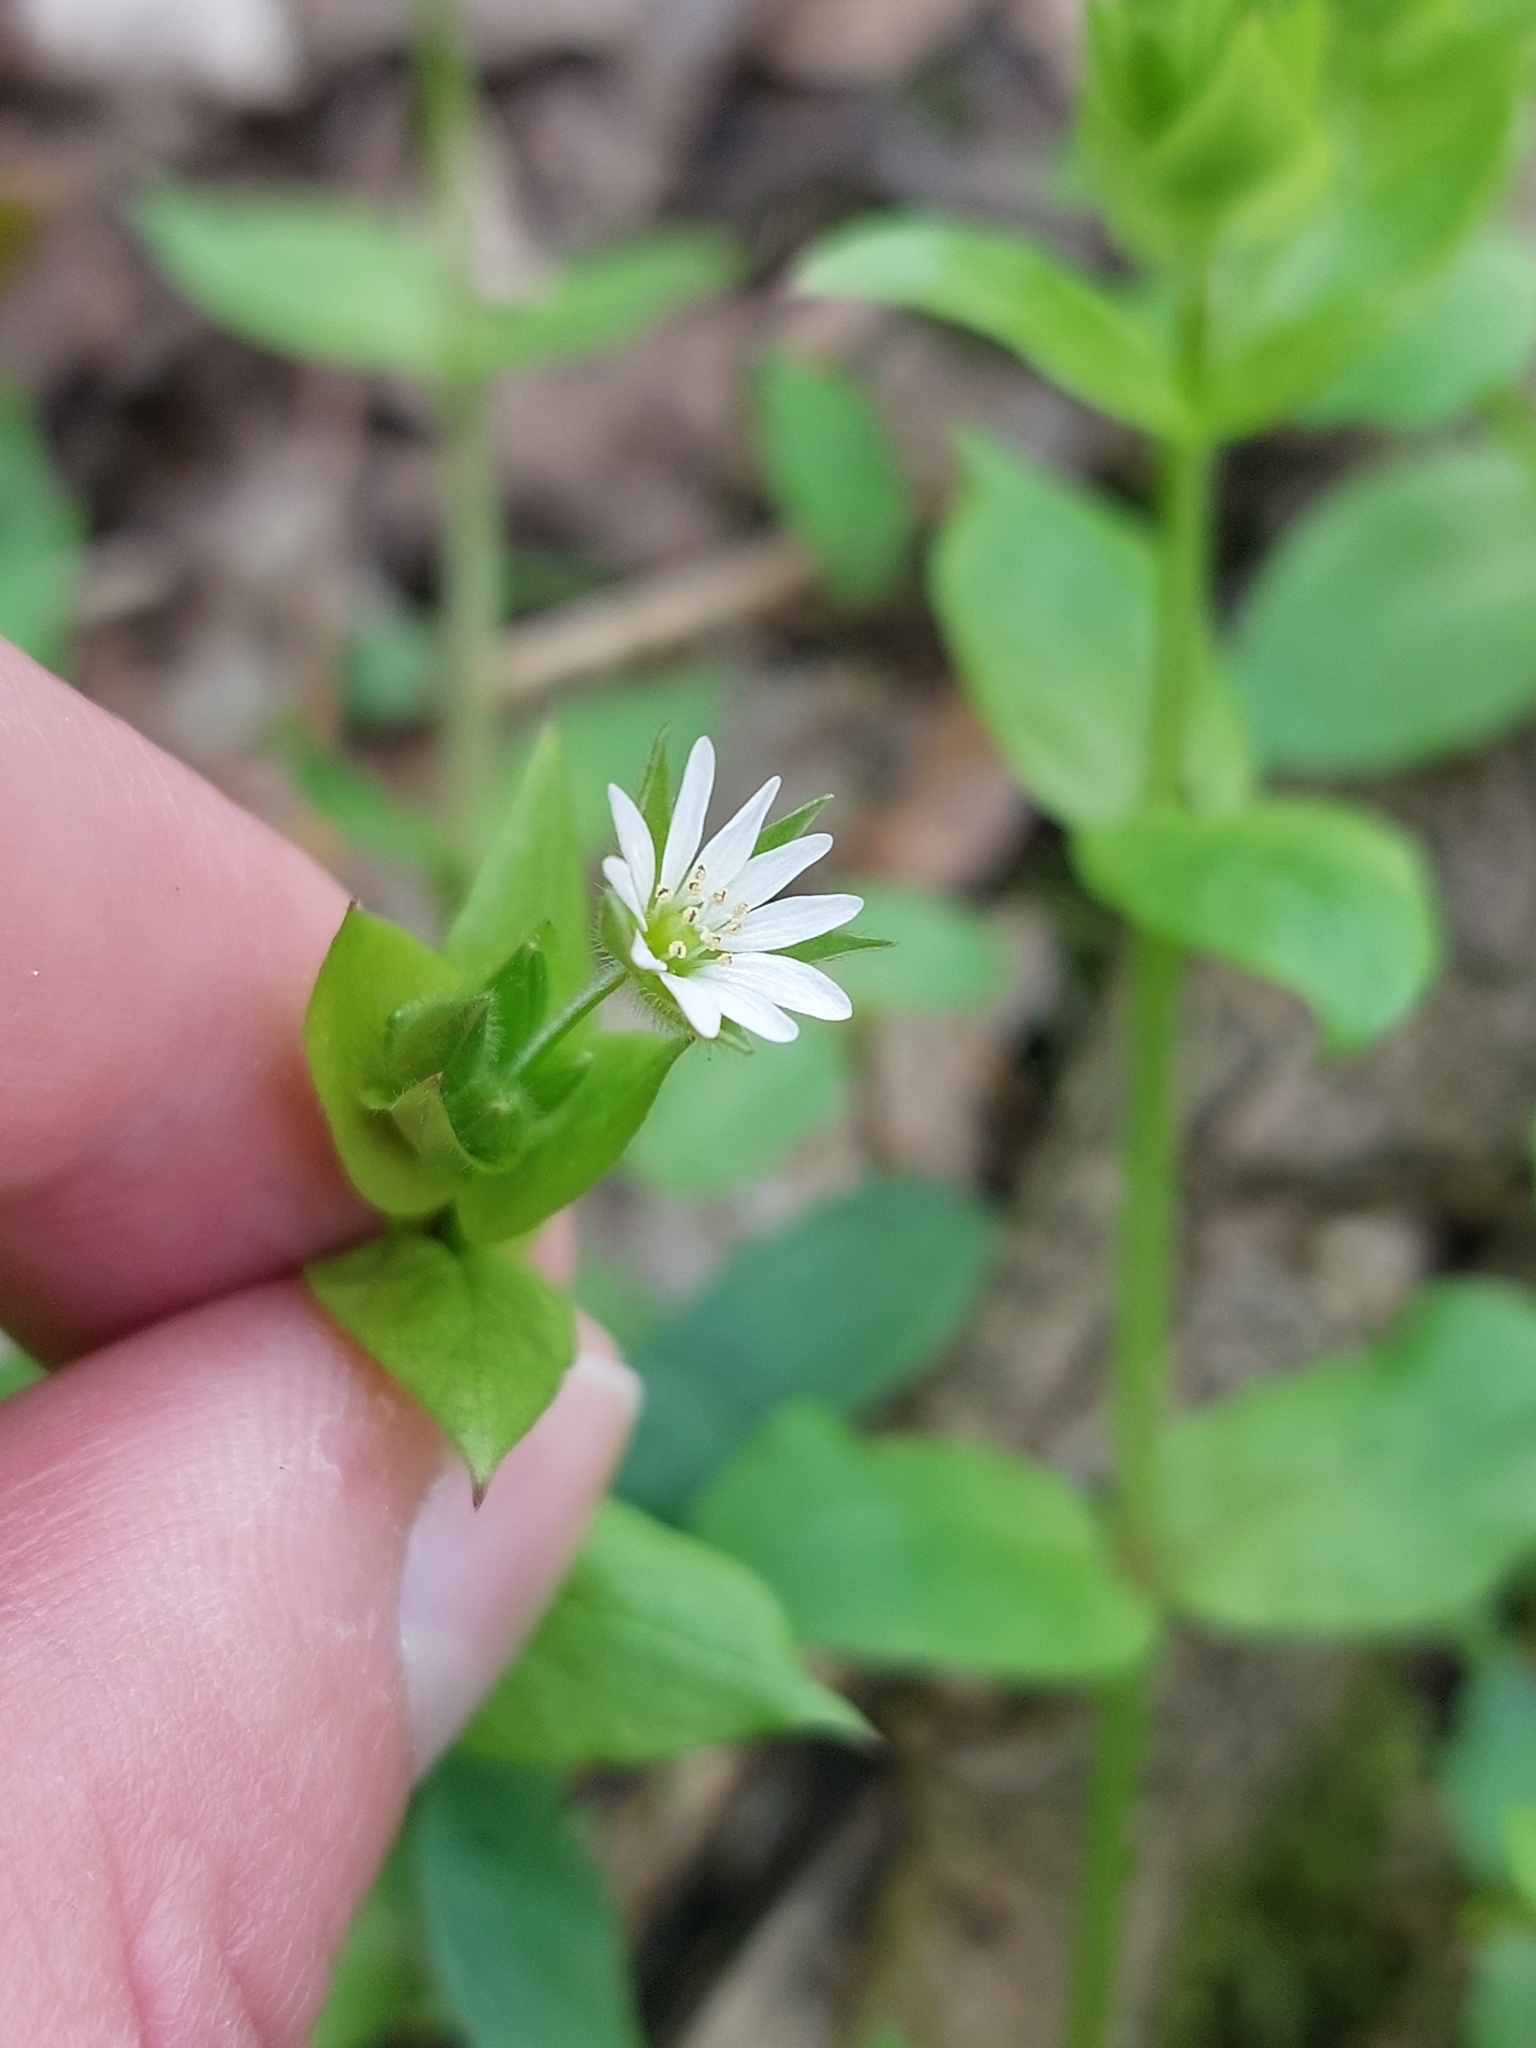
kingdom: Plantae
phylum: Tracheophyta
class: Magnoliopsida
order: Caryophyllales
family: Caryophyllaceae
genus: Stellaria
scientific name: Stellaria neglecta
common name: Greater chickweed
